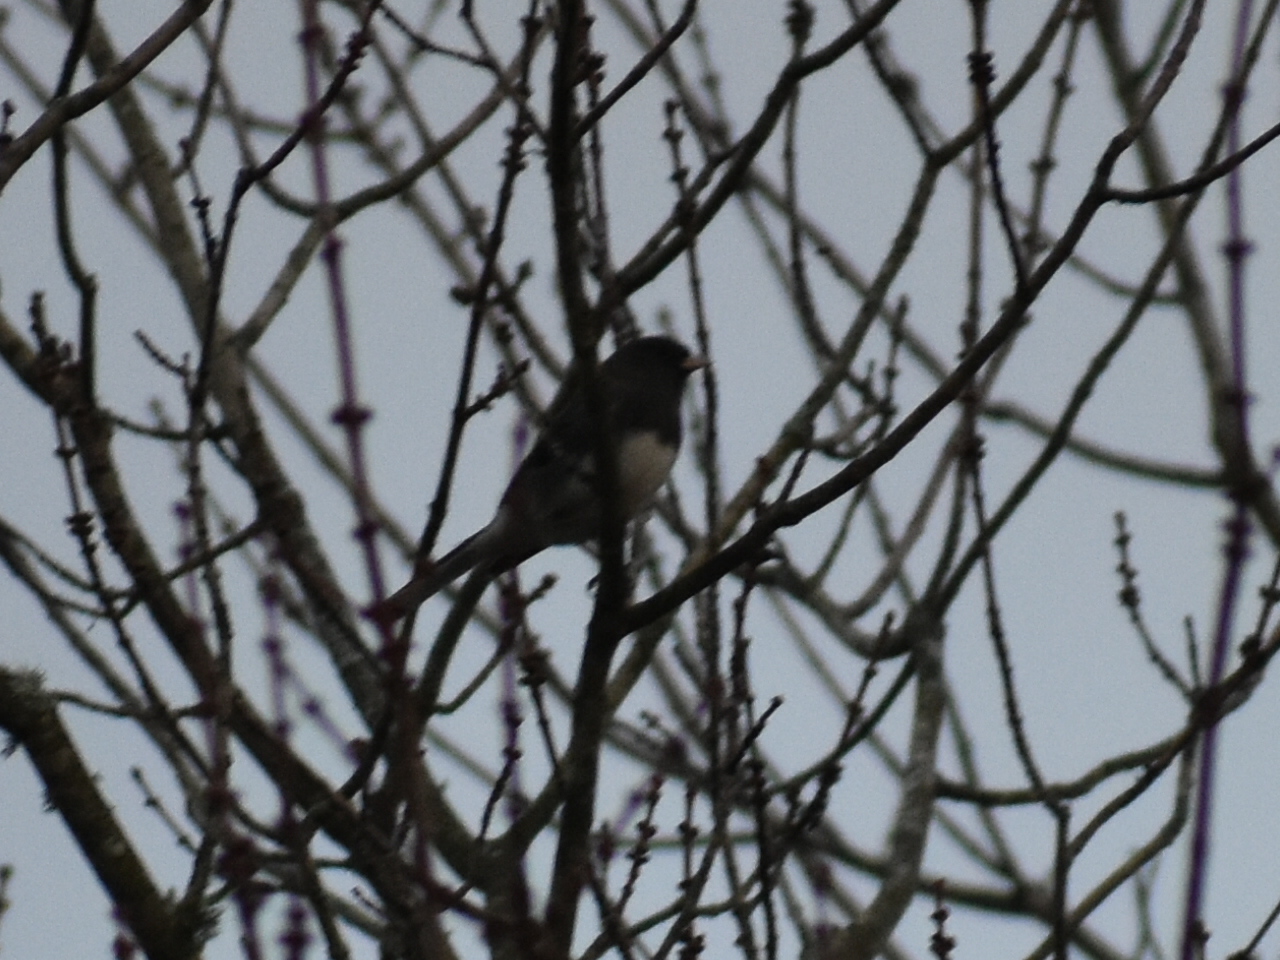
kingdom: Animalia
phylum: Chordata
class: Aves
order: Passeriformes
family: Passerellidae
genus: Junco
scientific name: Junco hyemalis
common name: Dark-eyed junco
